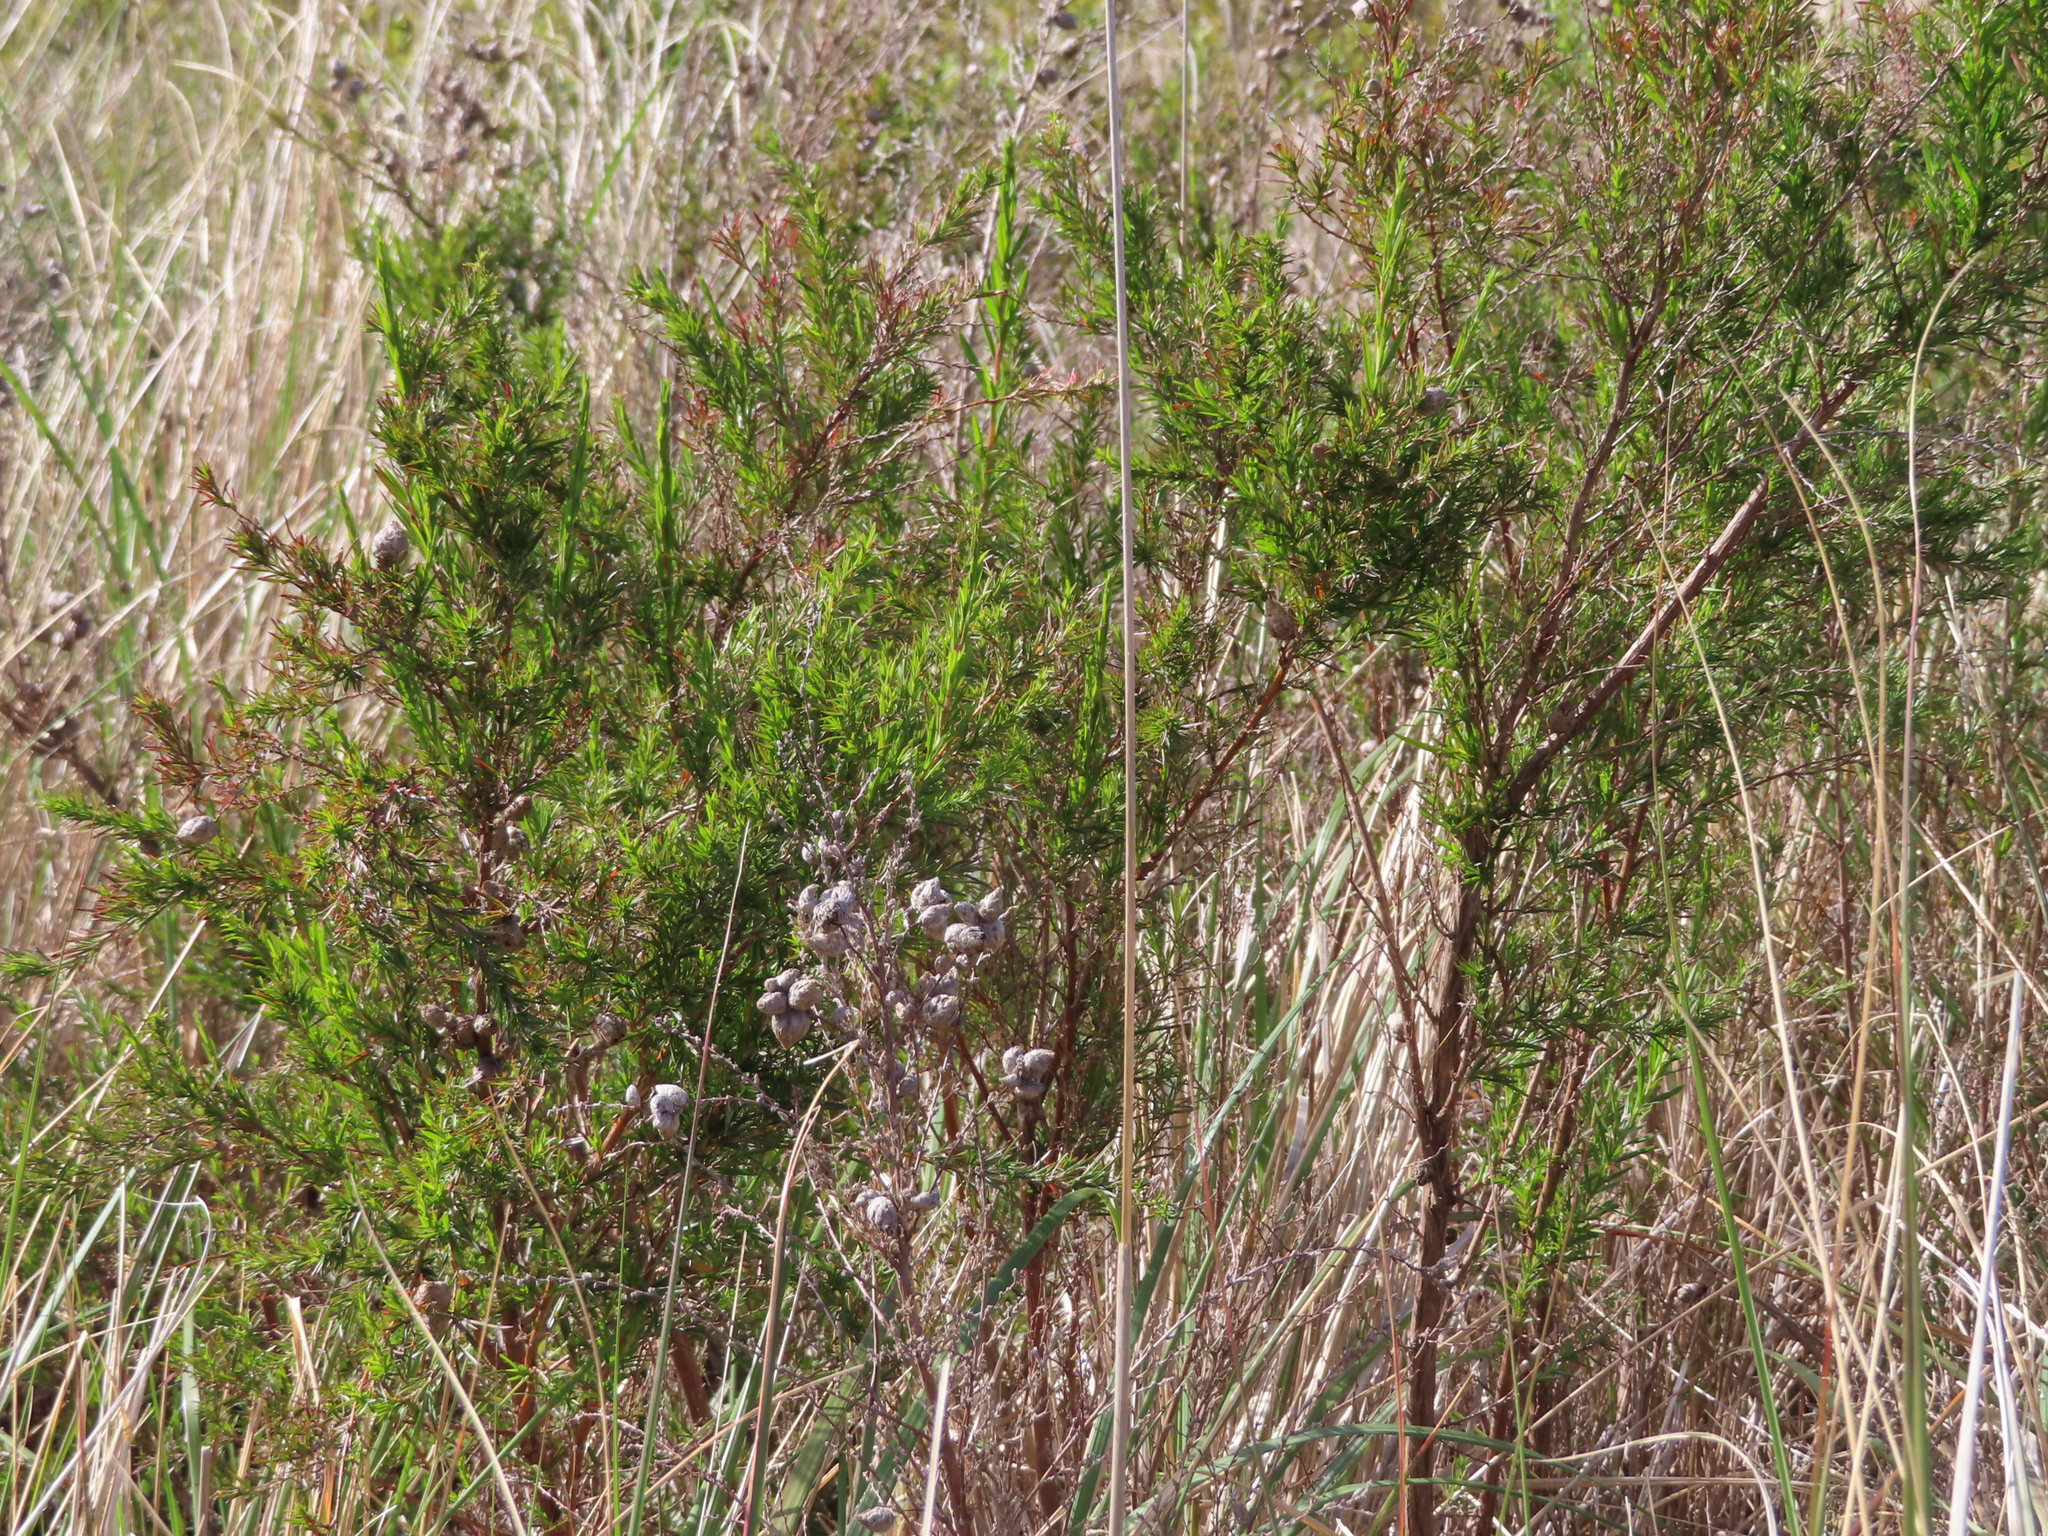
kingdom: Plantae
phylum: Tracheophyta
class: Magnoliopsida
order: Rosales
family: Rosaceae
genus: Cliffortia
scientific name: Cliffortia strobilifera
